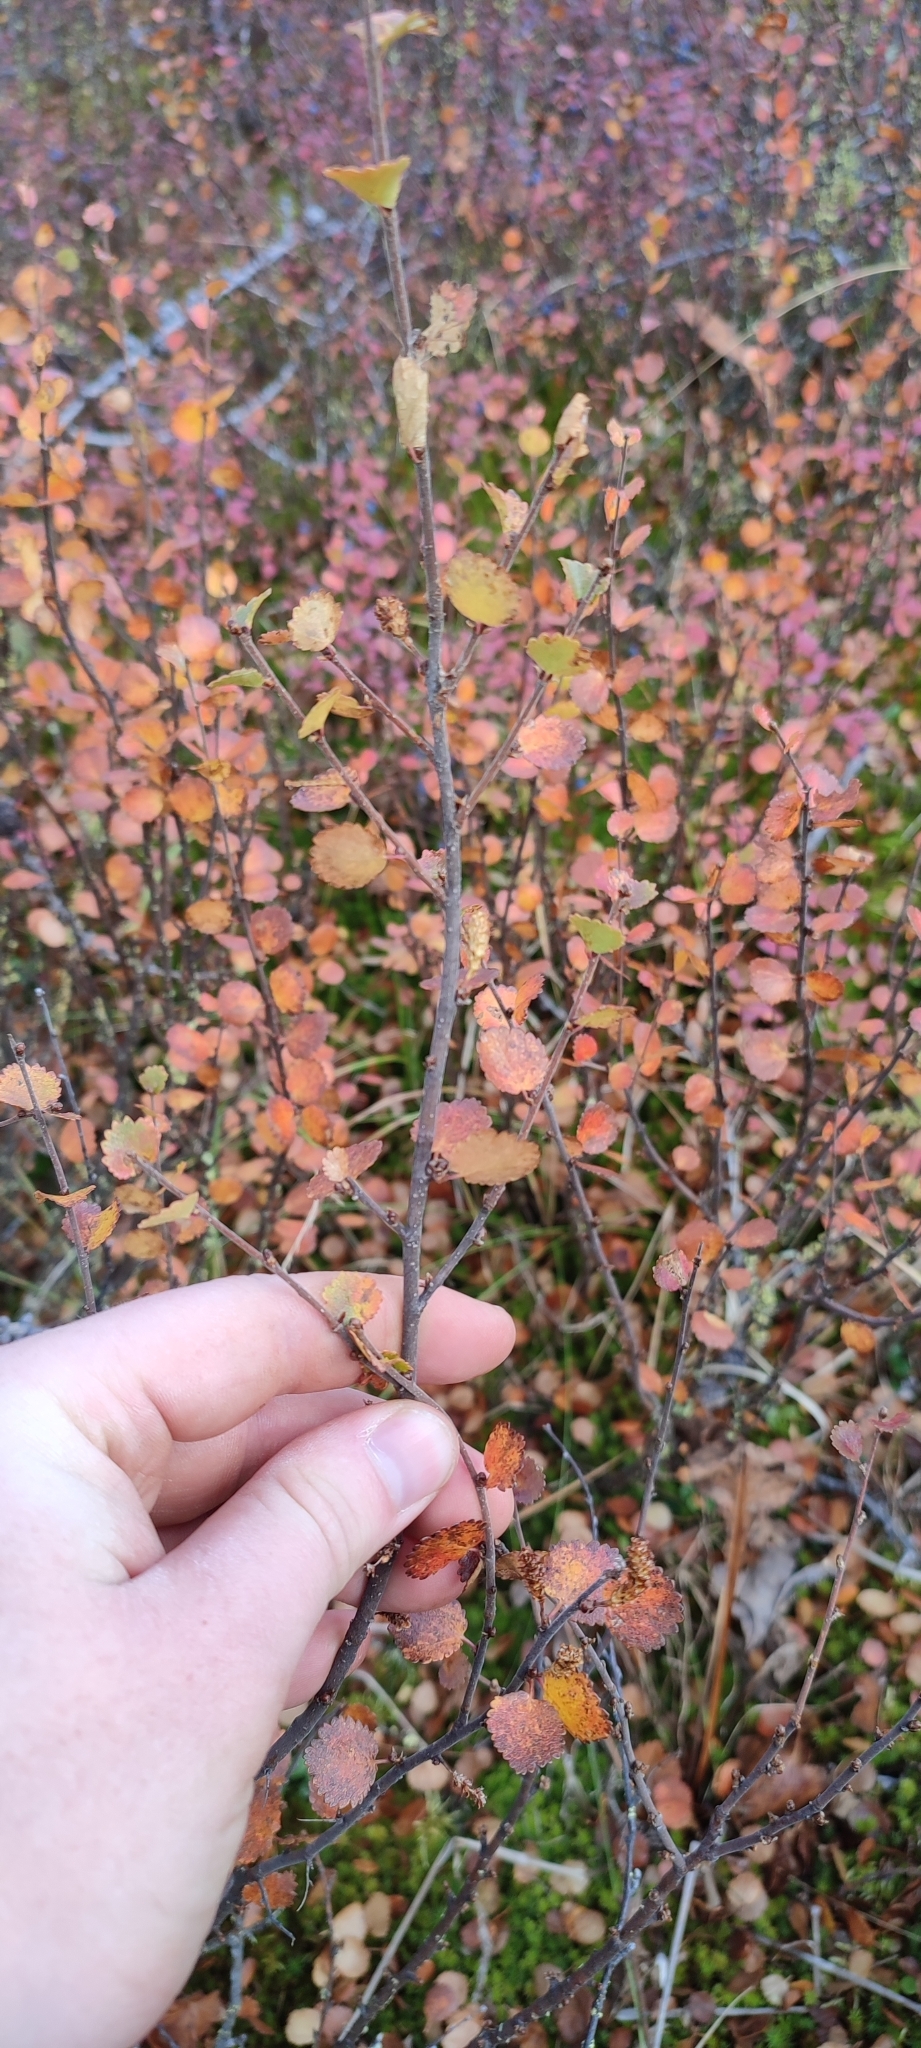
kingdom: Plantae
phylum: Tracheophyta
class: Magnoliopsida
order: Fagales
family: Betulaceae
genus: Betula
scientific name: Betula nana
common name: Arctic dwarf birch
